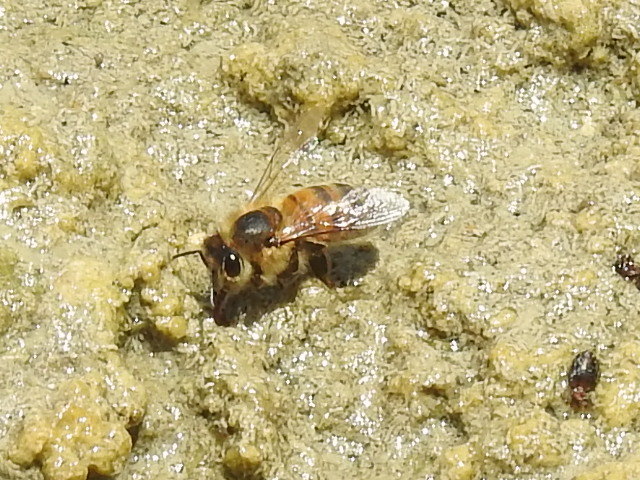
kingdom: Animalia
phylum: Arthropoda
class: Insecta
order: Hymenoptera
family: Apidae
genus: Apis
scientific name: Apis mellifera
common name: Honey bee
